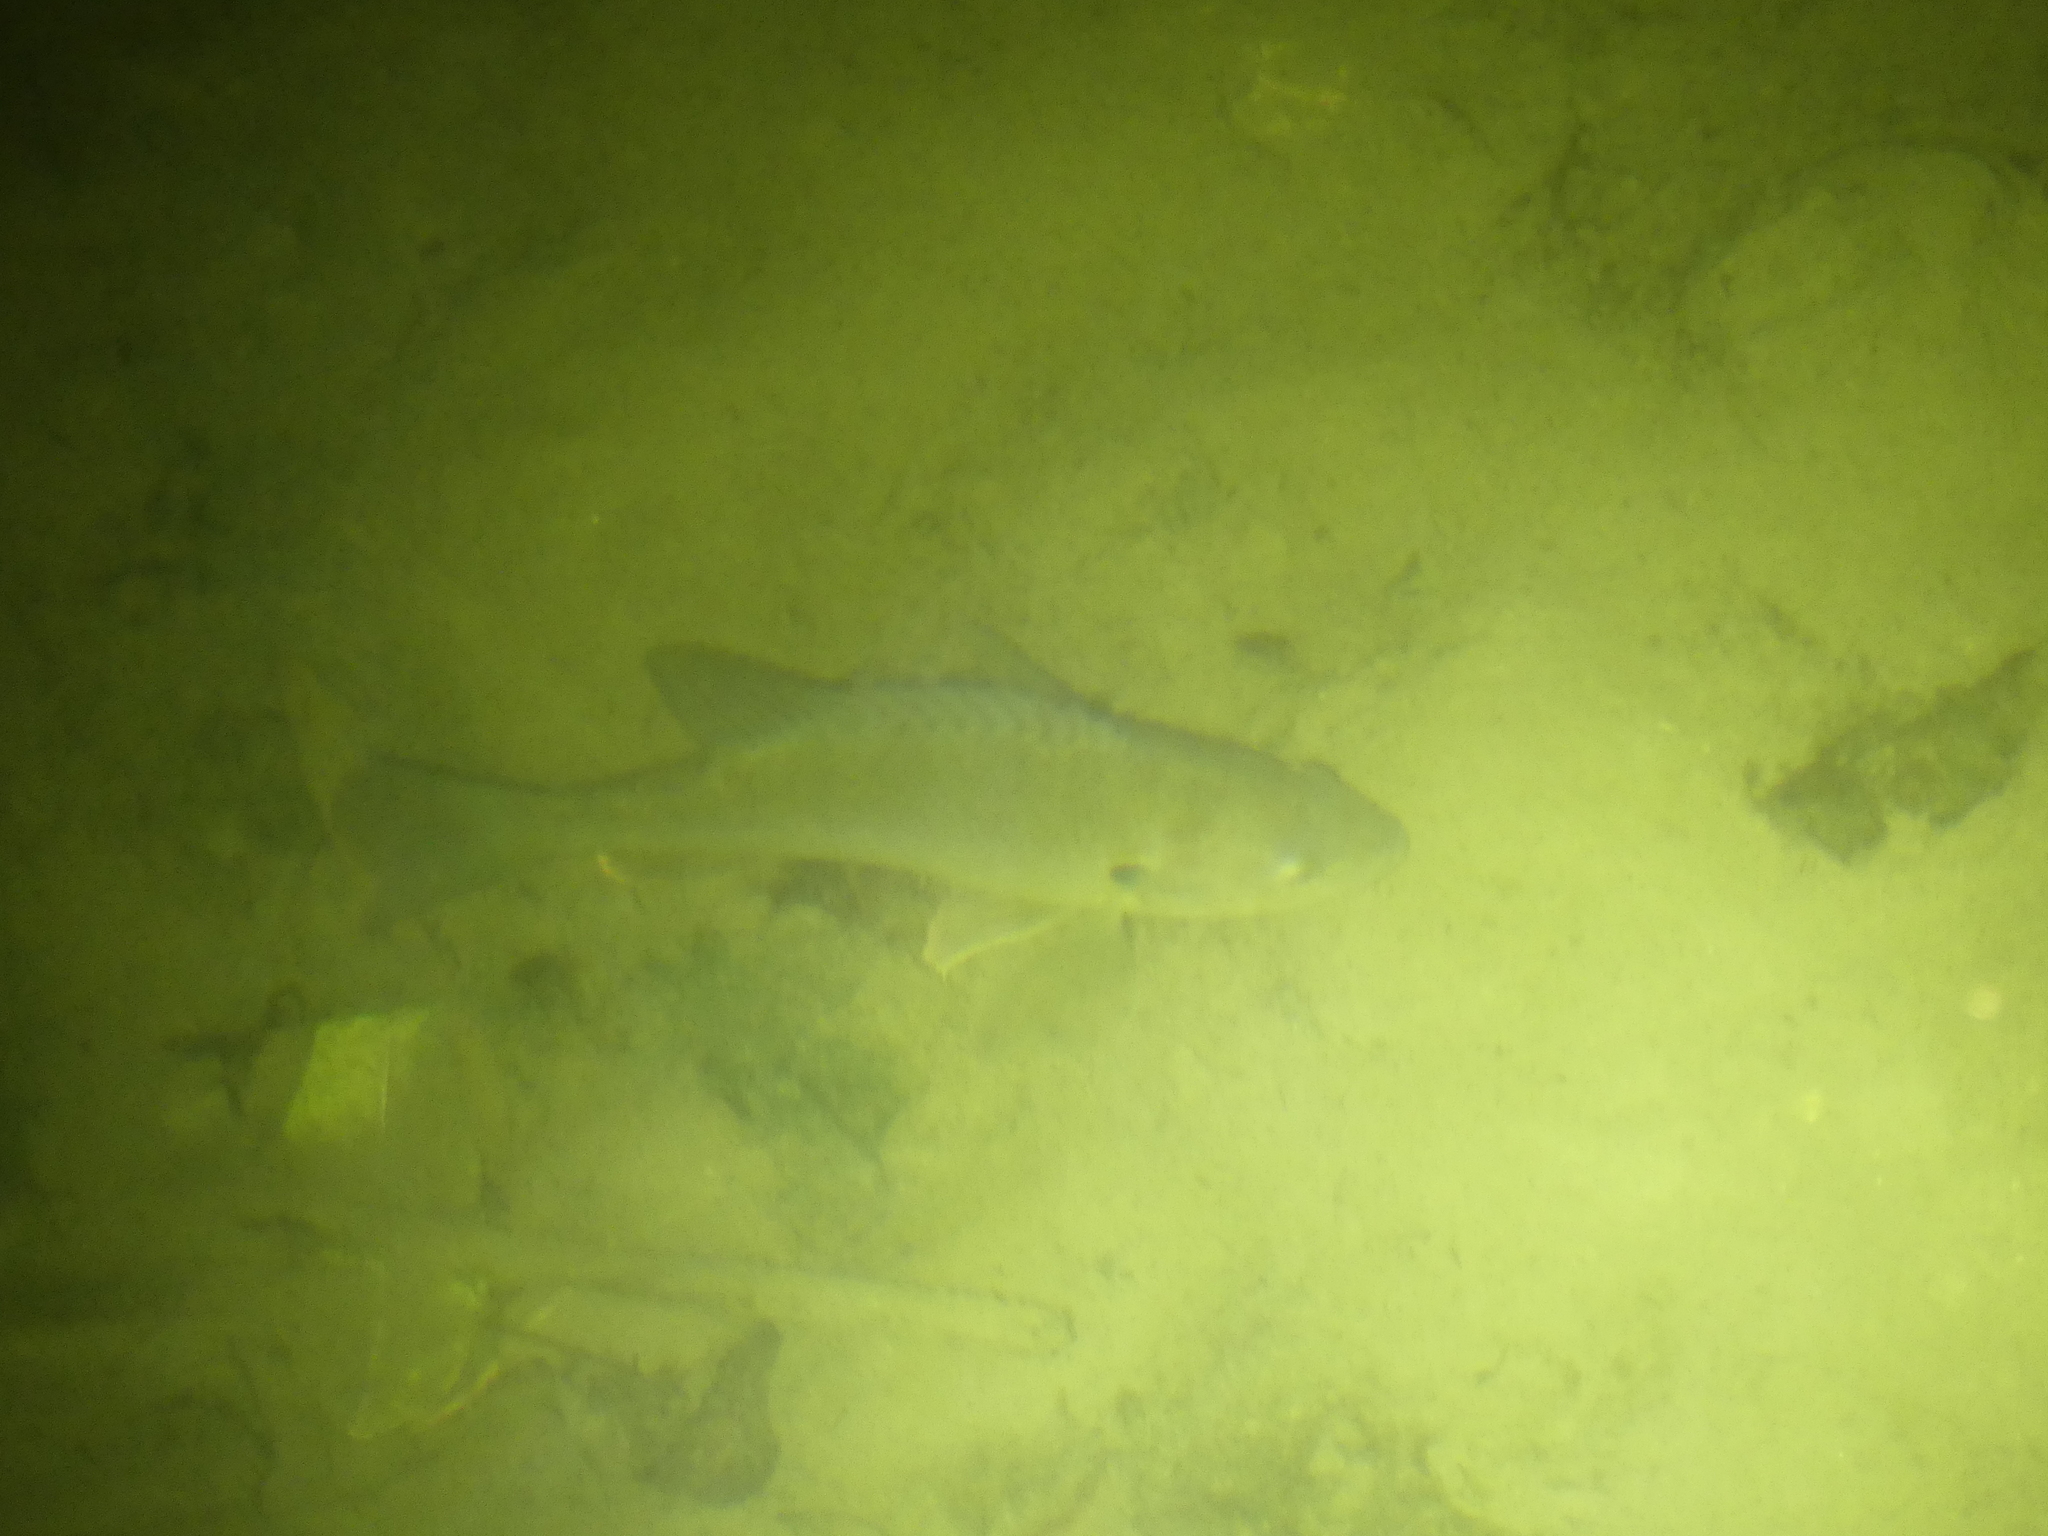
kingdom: Animalia
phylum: Chordata
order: Perciformes
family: Centrarchidae
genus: Lepomis
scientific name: Lepomis gibbosus
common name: Pumpkinseed
